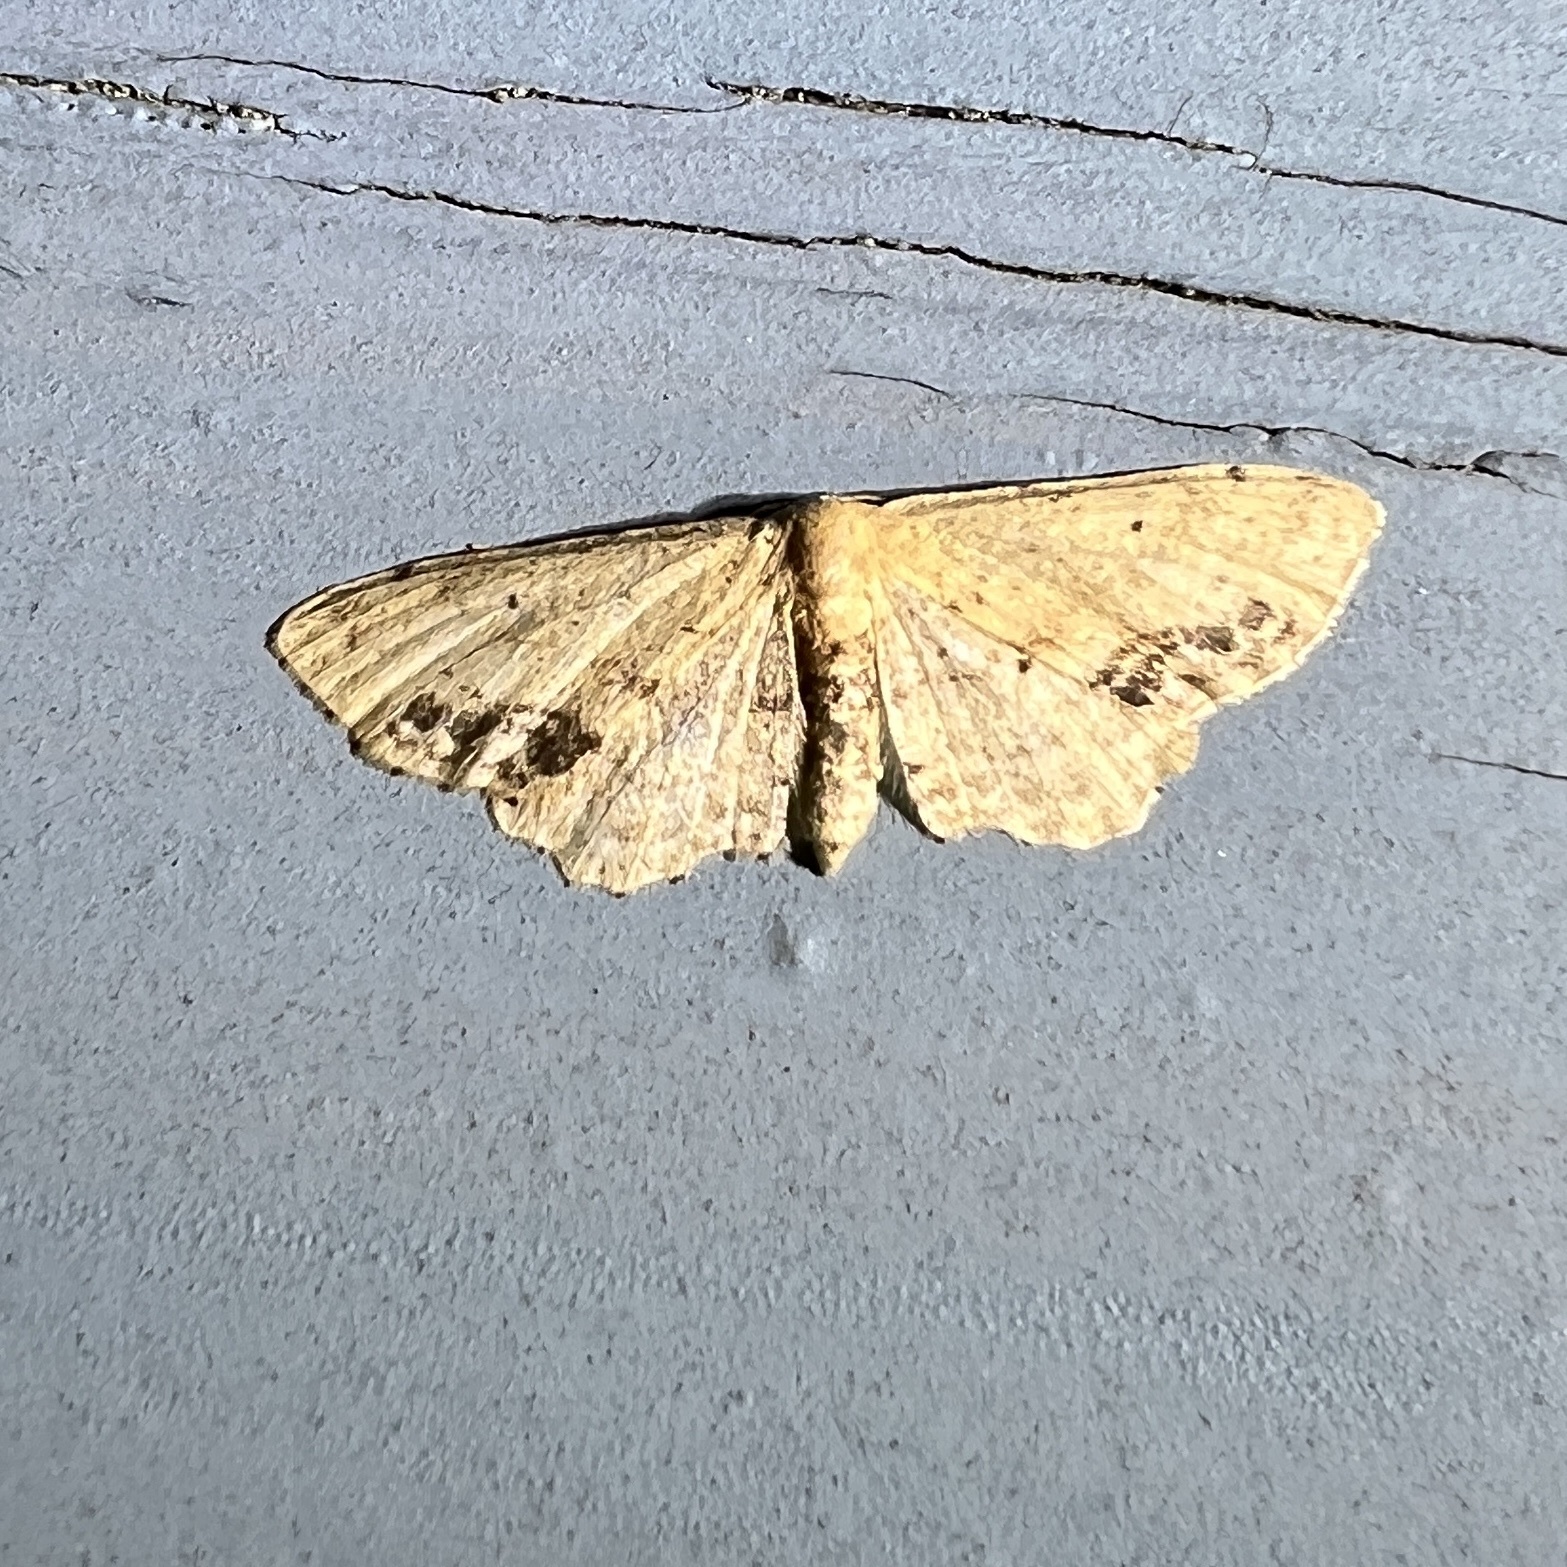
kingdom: Animalia
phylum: Arthropoda
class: Insecta
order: Lepidoptera
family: Geometridae
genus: Idaea
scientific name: Idaea dimidiata
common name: Single-dotted wave
